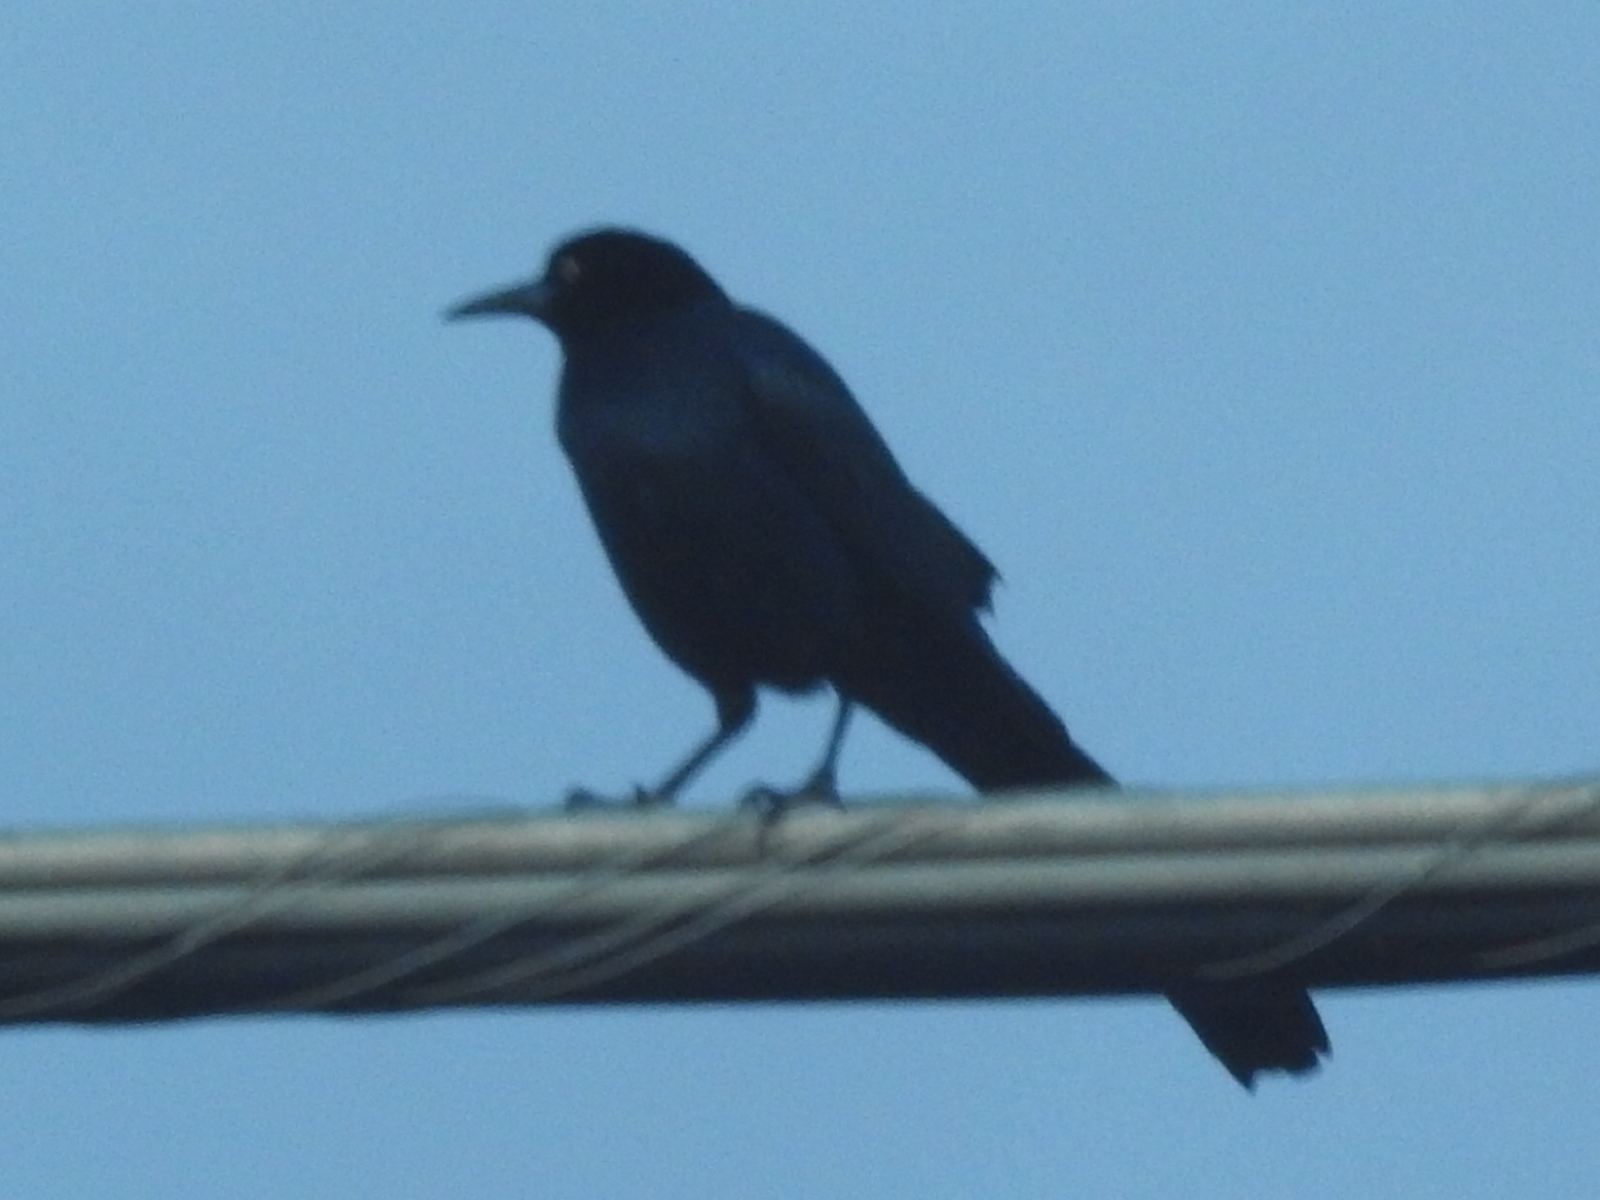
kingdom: Animalia
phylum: Chordata
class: Aves
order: Passeriformes
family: Icteridae
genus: Quiscalus
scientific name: Quiscalus mexicanus
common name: Great-tailed grackle
